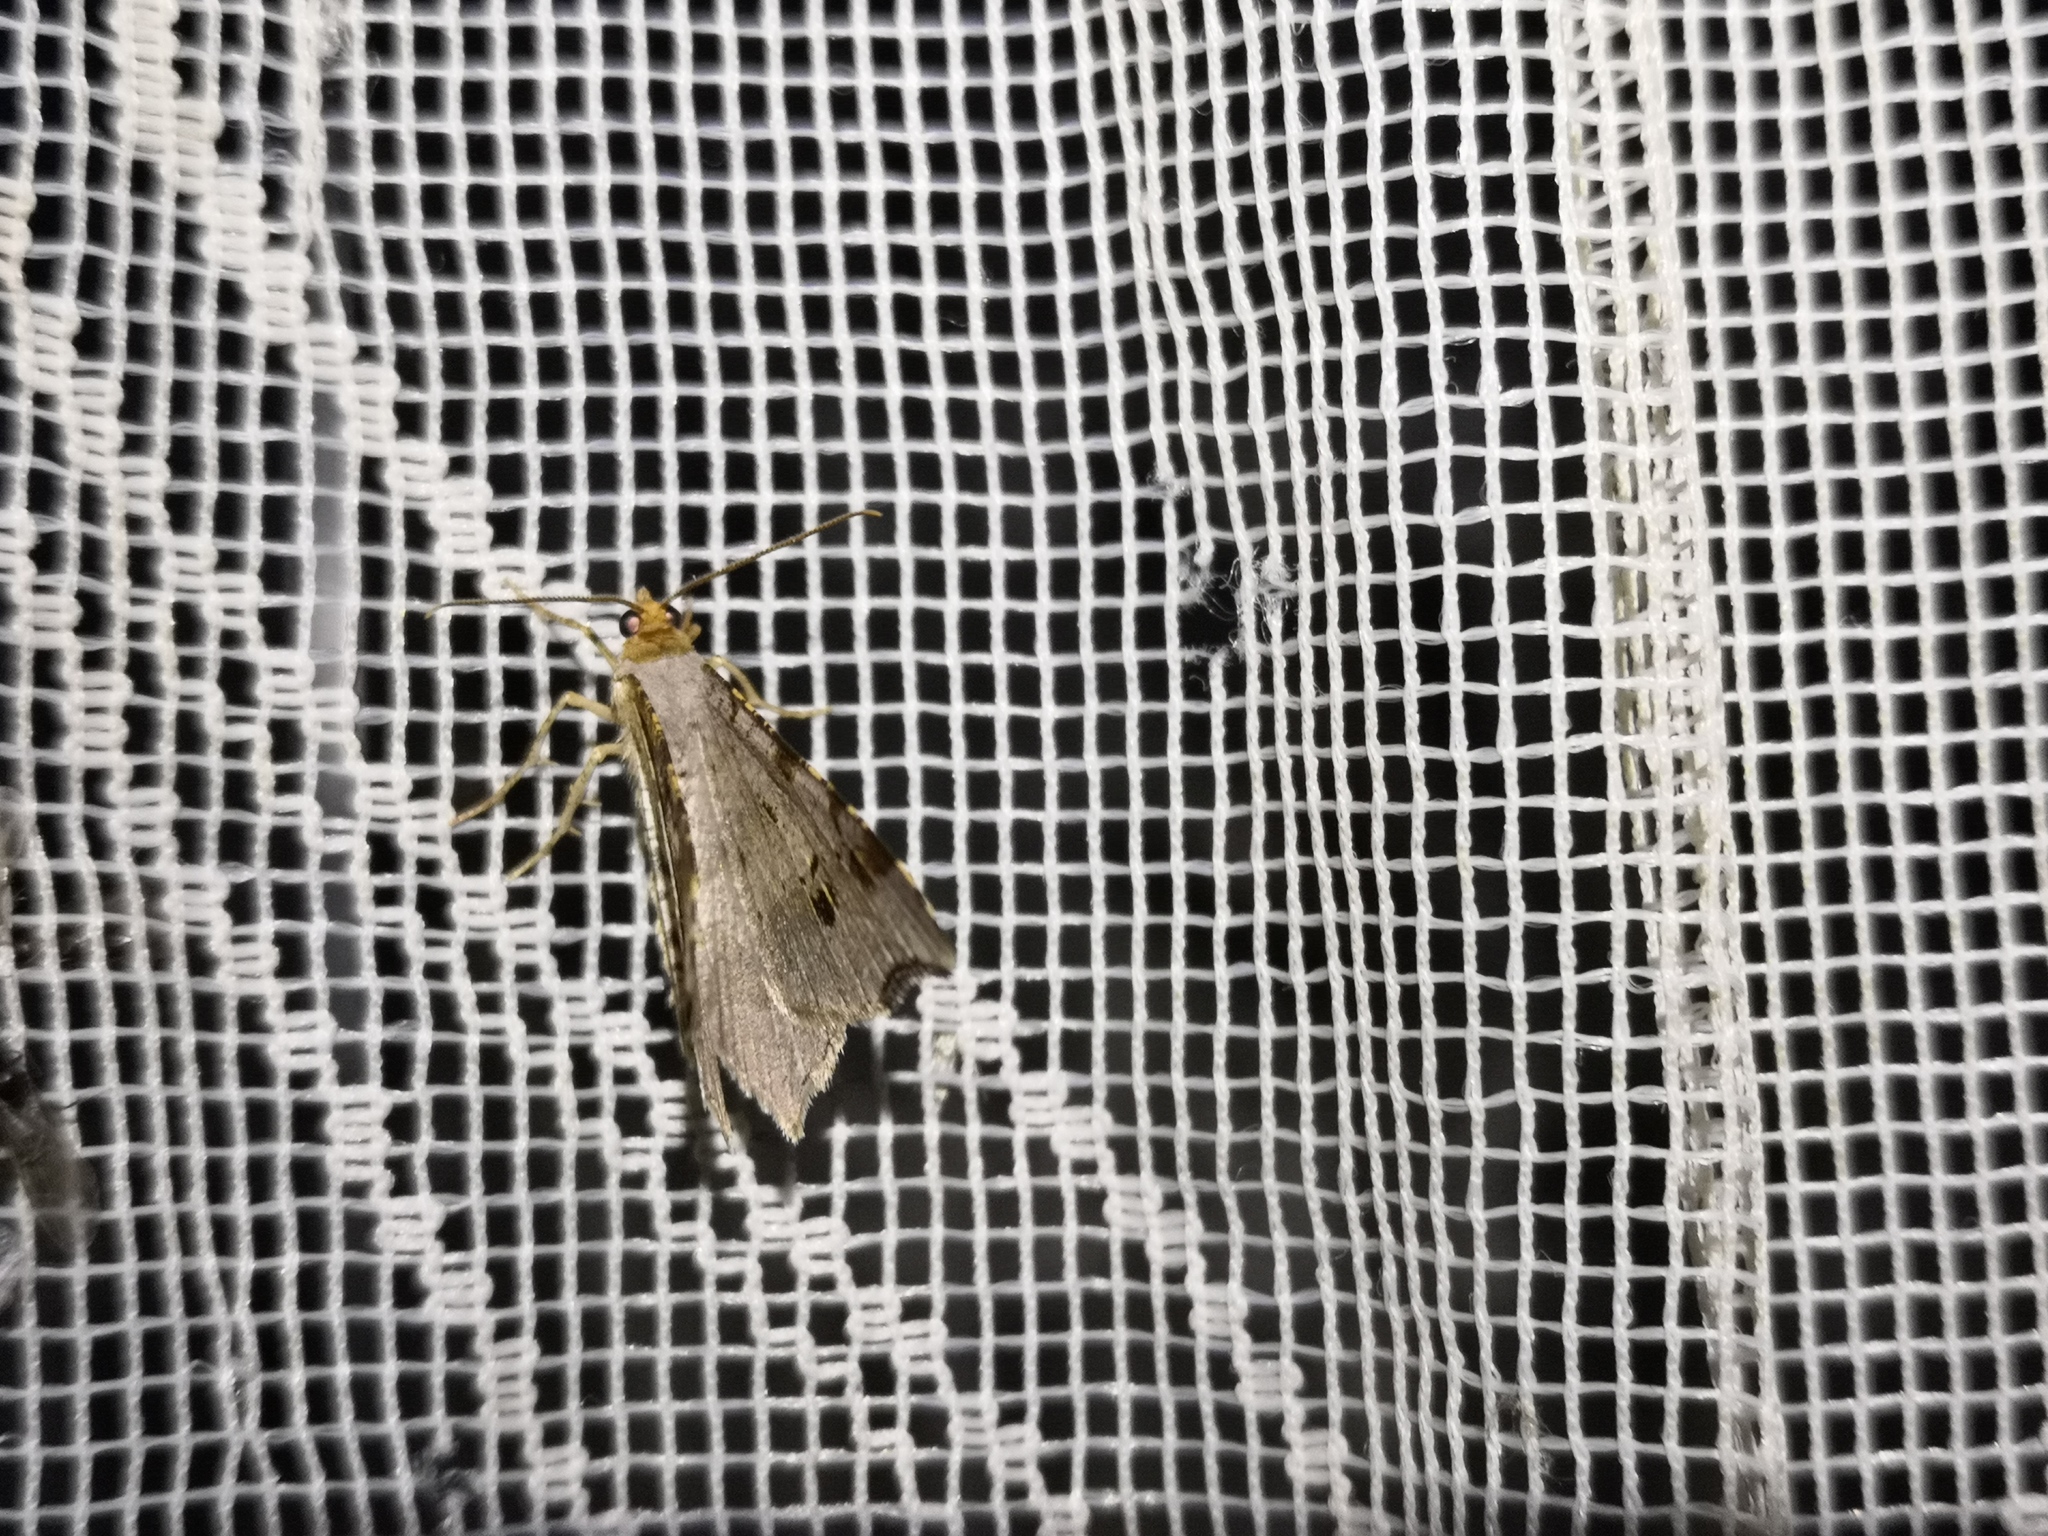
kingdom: Animalia
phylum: Arthropoda
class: Insecta
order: Lepidoptera
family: Geometridae
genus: Macaria
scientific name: Macaria alternata
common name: Sharp-angled peacock
